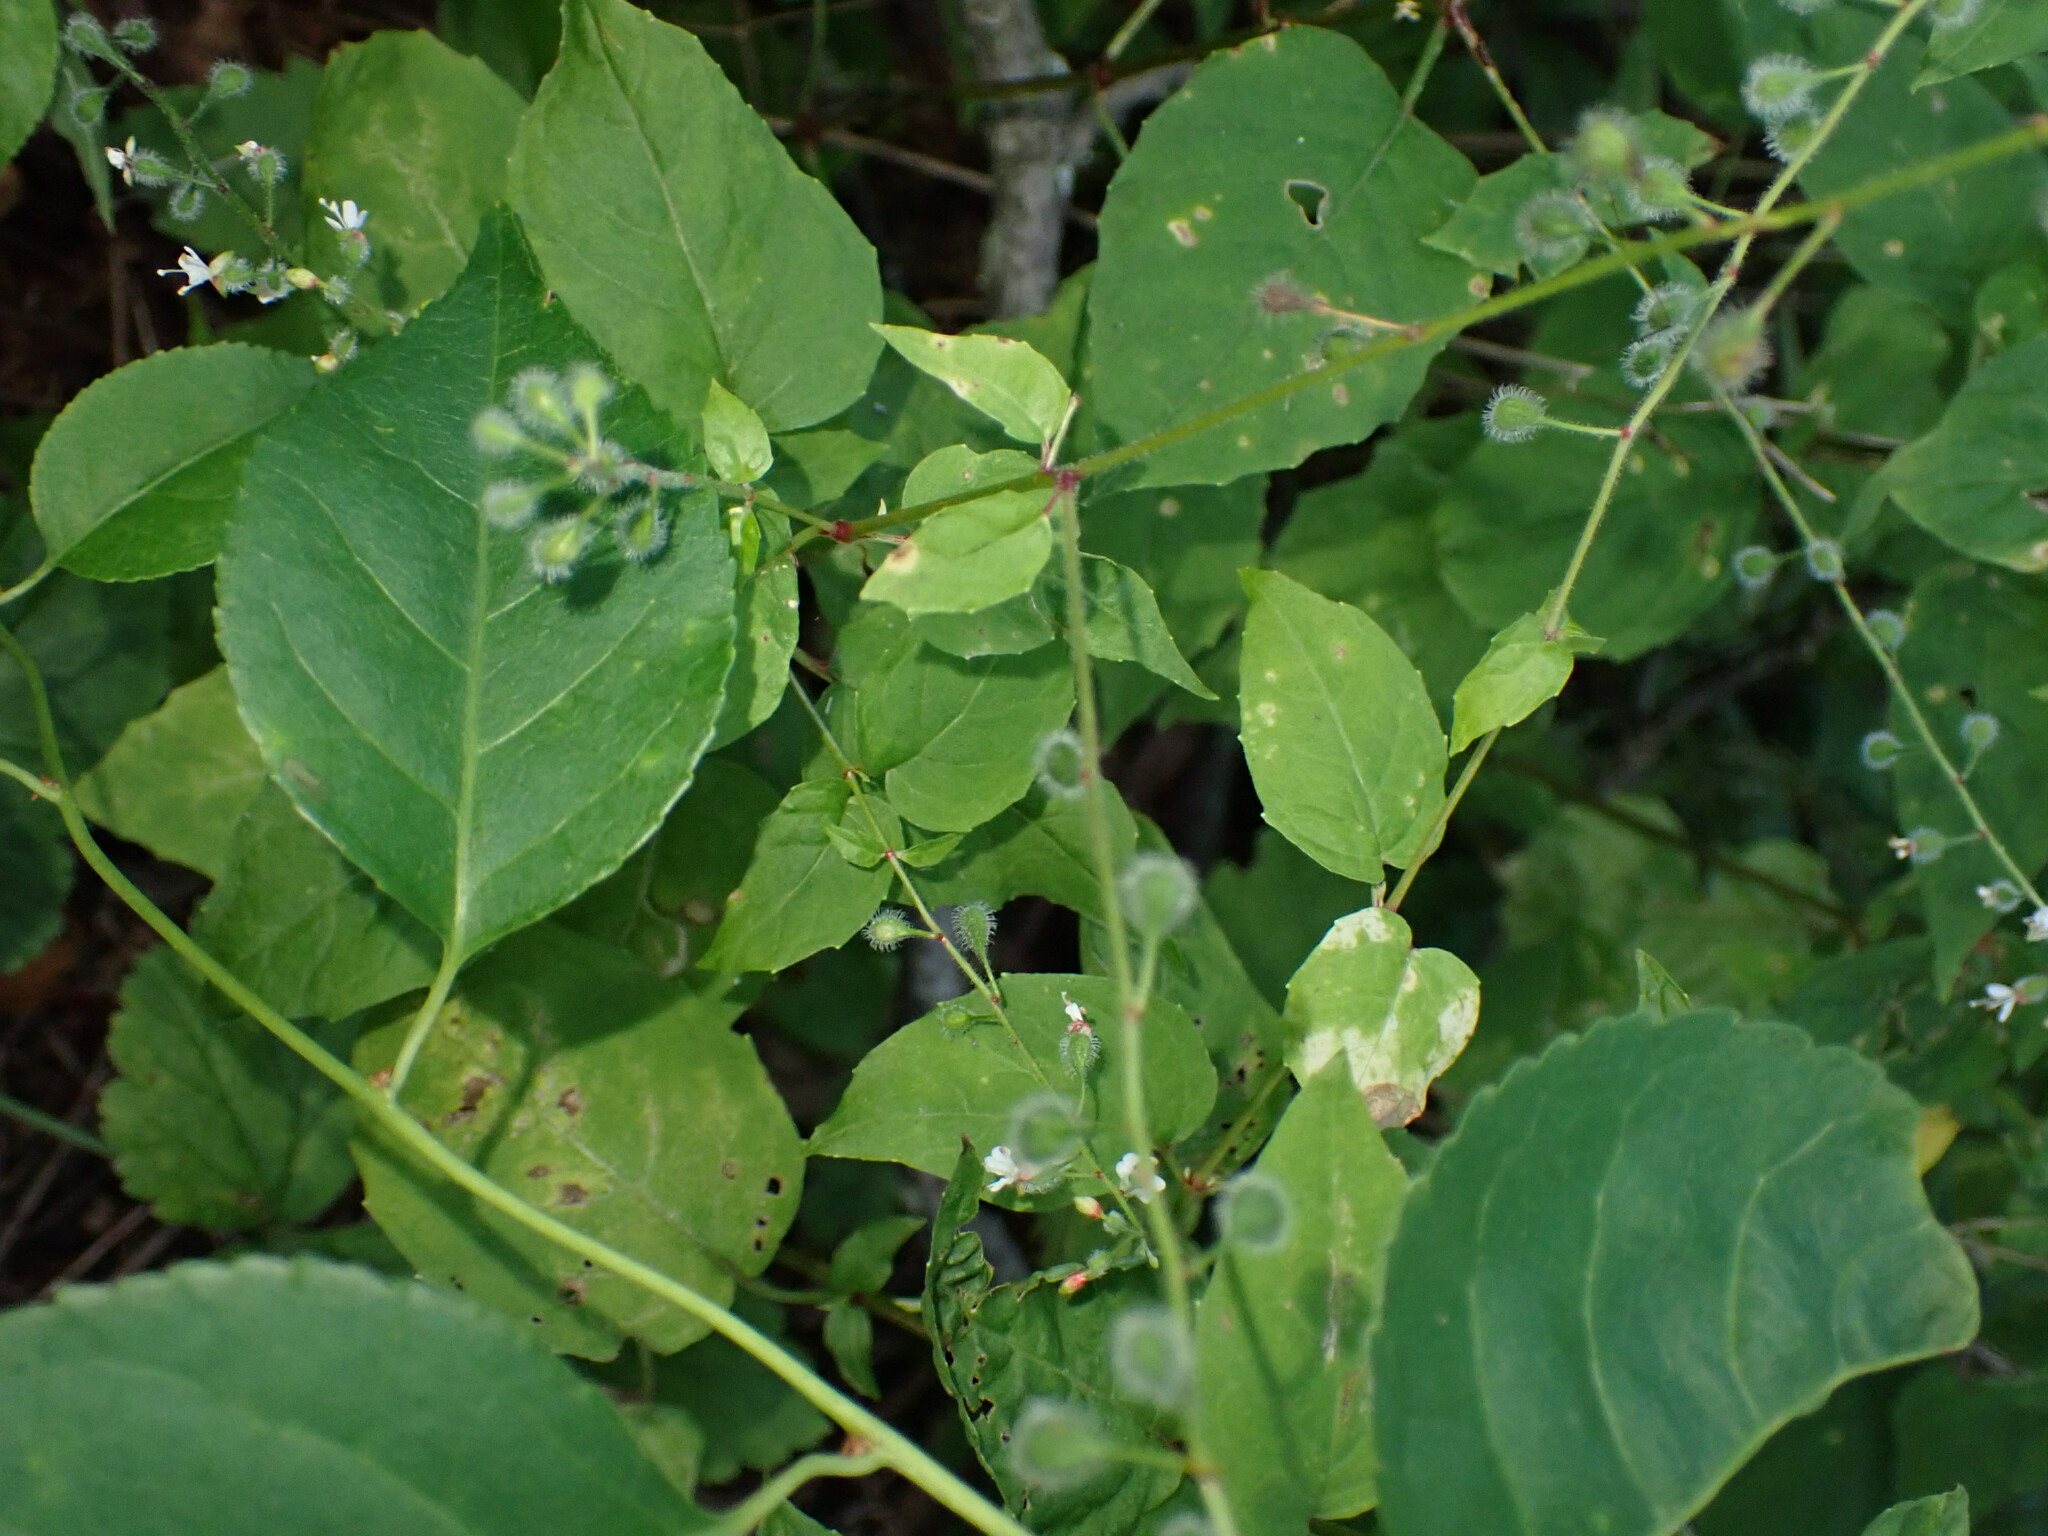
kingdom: Plantae
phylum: Tracheophyta
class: Magnoliopsida
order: Myrtales
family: Onagraceae
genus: Circaea
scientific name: Circaea canadensis
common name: Broad-leaved enchanter's nightshade
